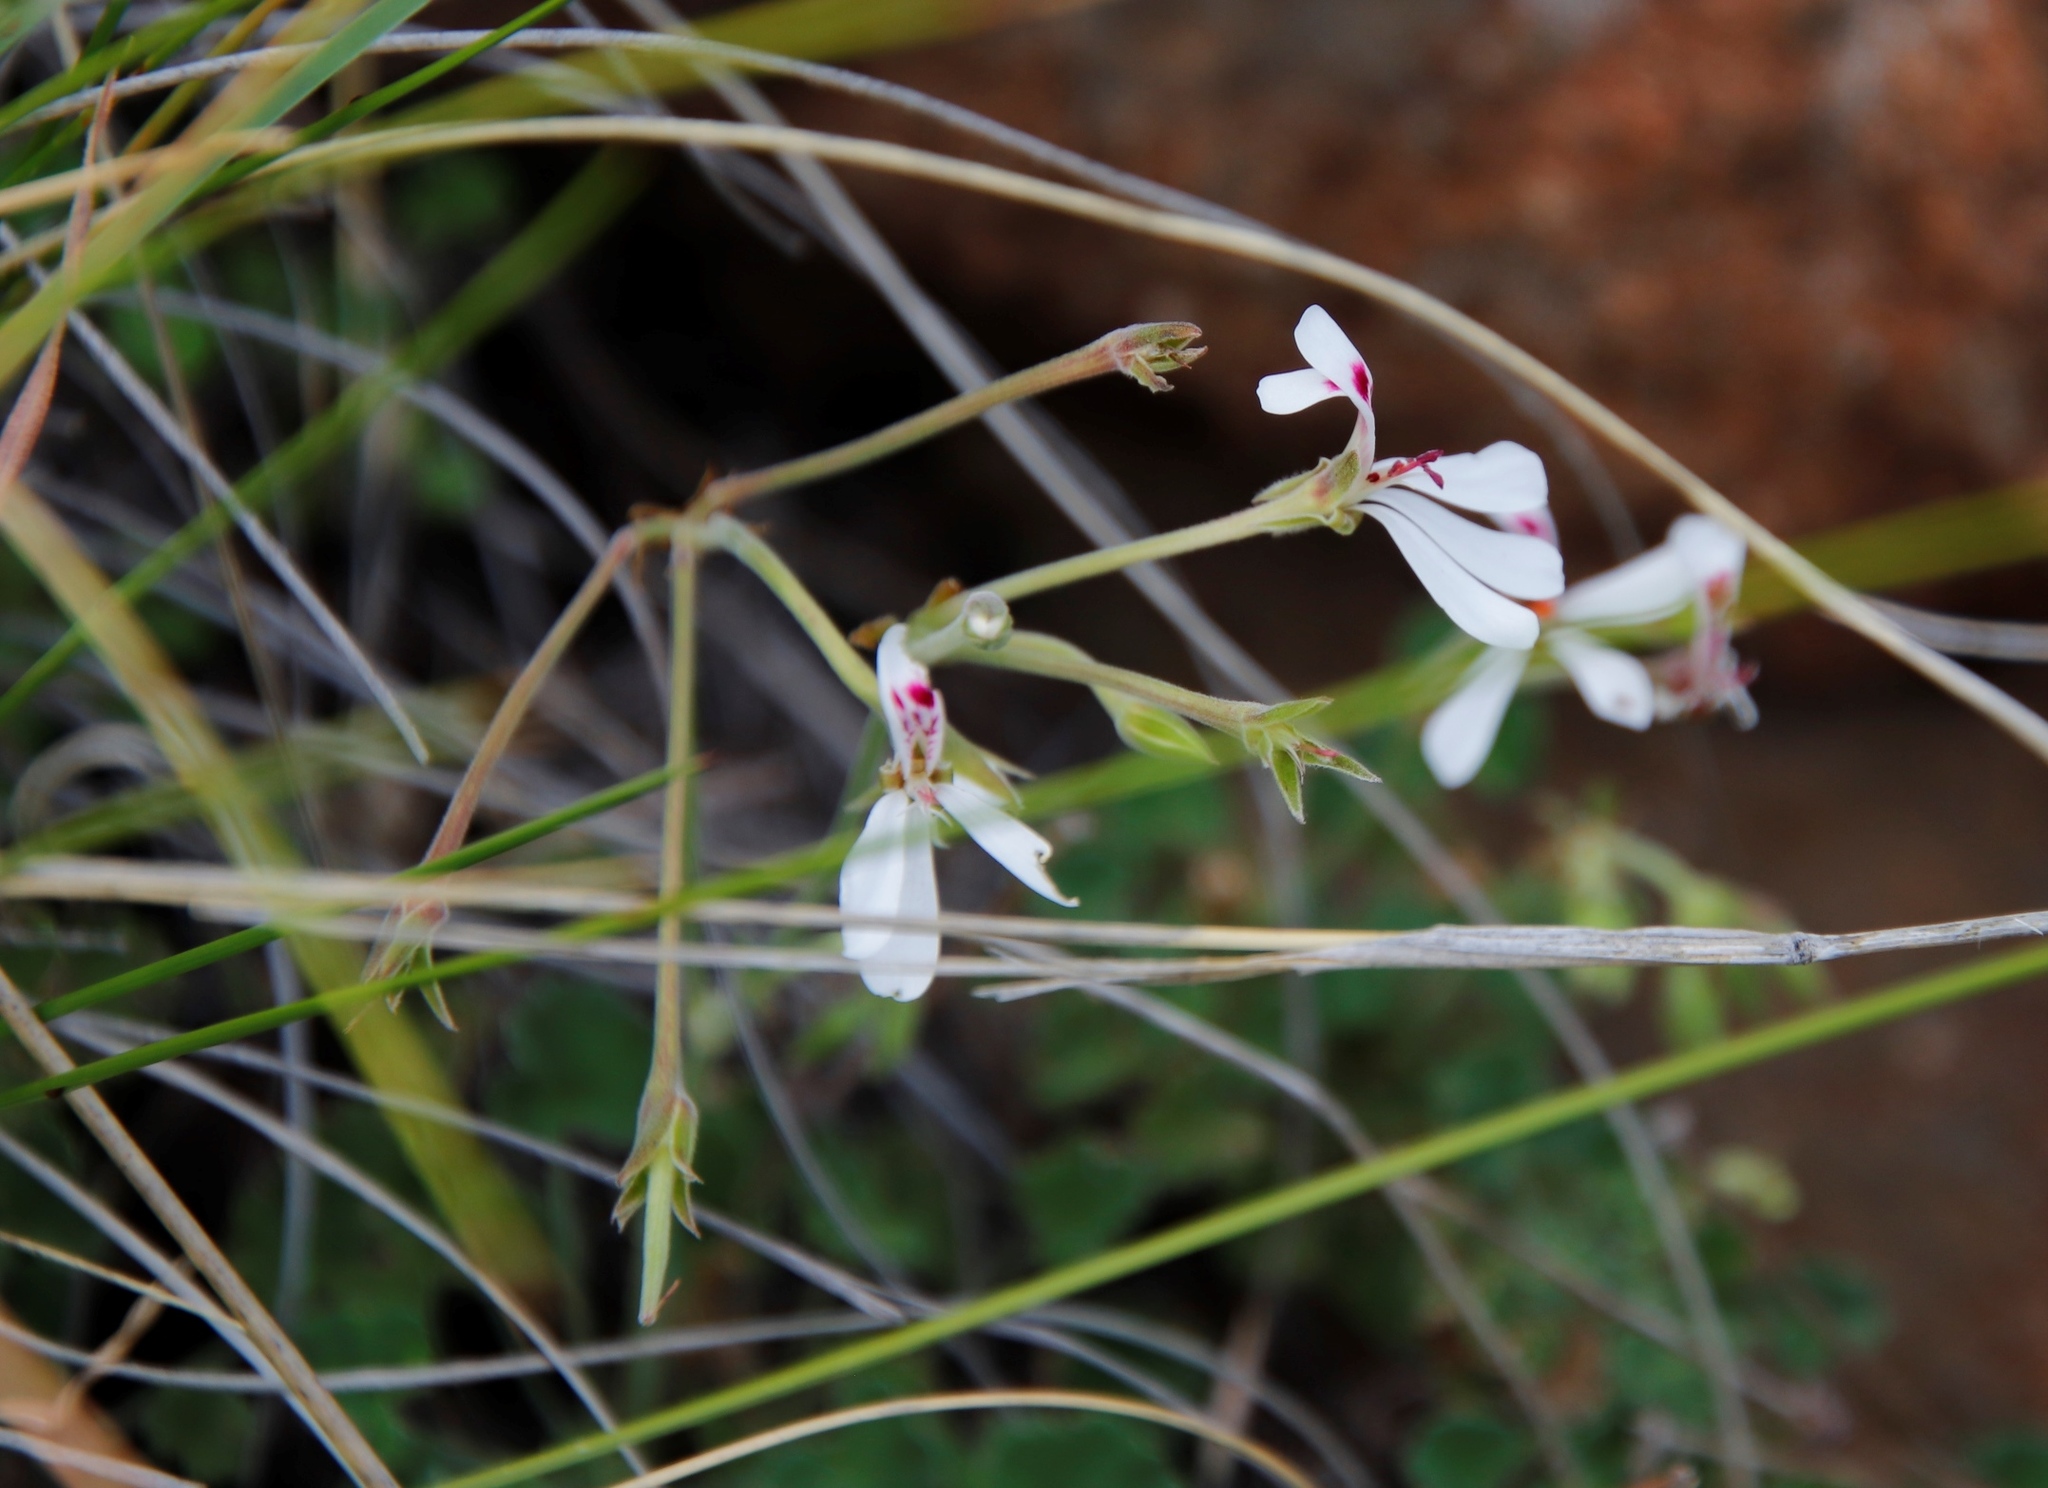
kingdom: Plantae
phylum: Tracheophyta
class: Magnoliopsida
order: Geraniales
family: Geraniaceae
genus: Pelargonium
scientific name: Pelargonium dichondrifolium
